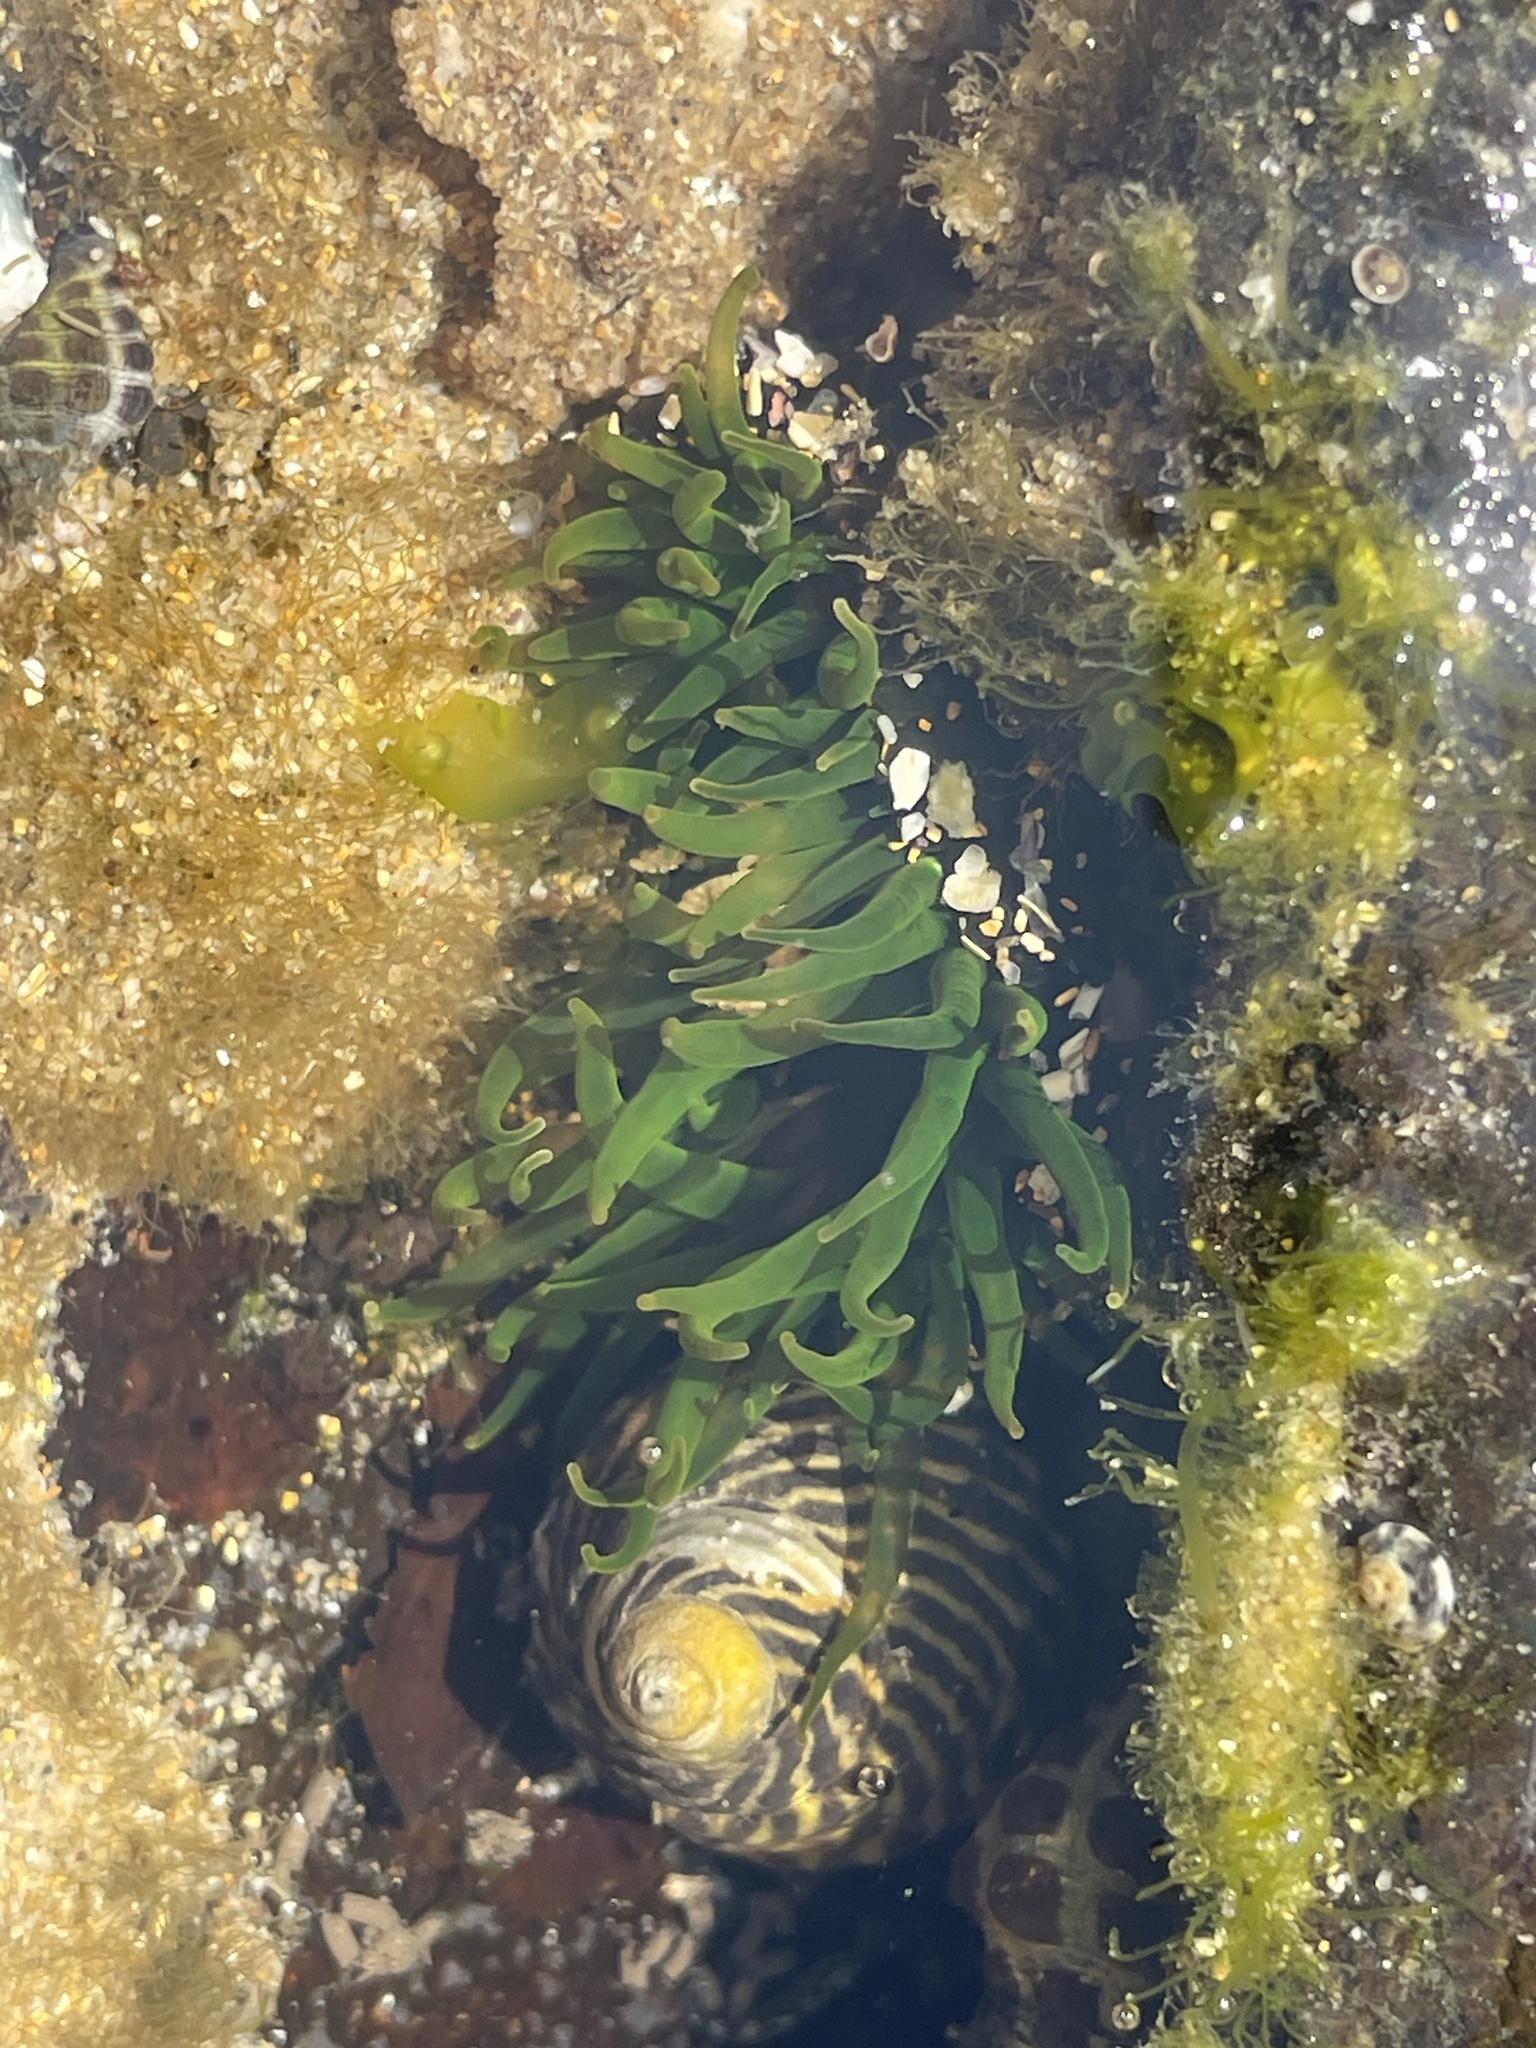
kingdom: Animalia
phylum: Cnidaria
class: Anthozoa
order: Actiniaria
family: Actiniidae
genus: Aulactinia
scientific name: Aulactinia veratra
